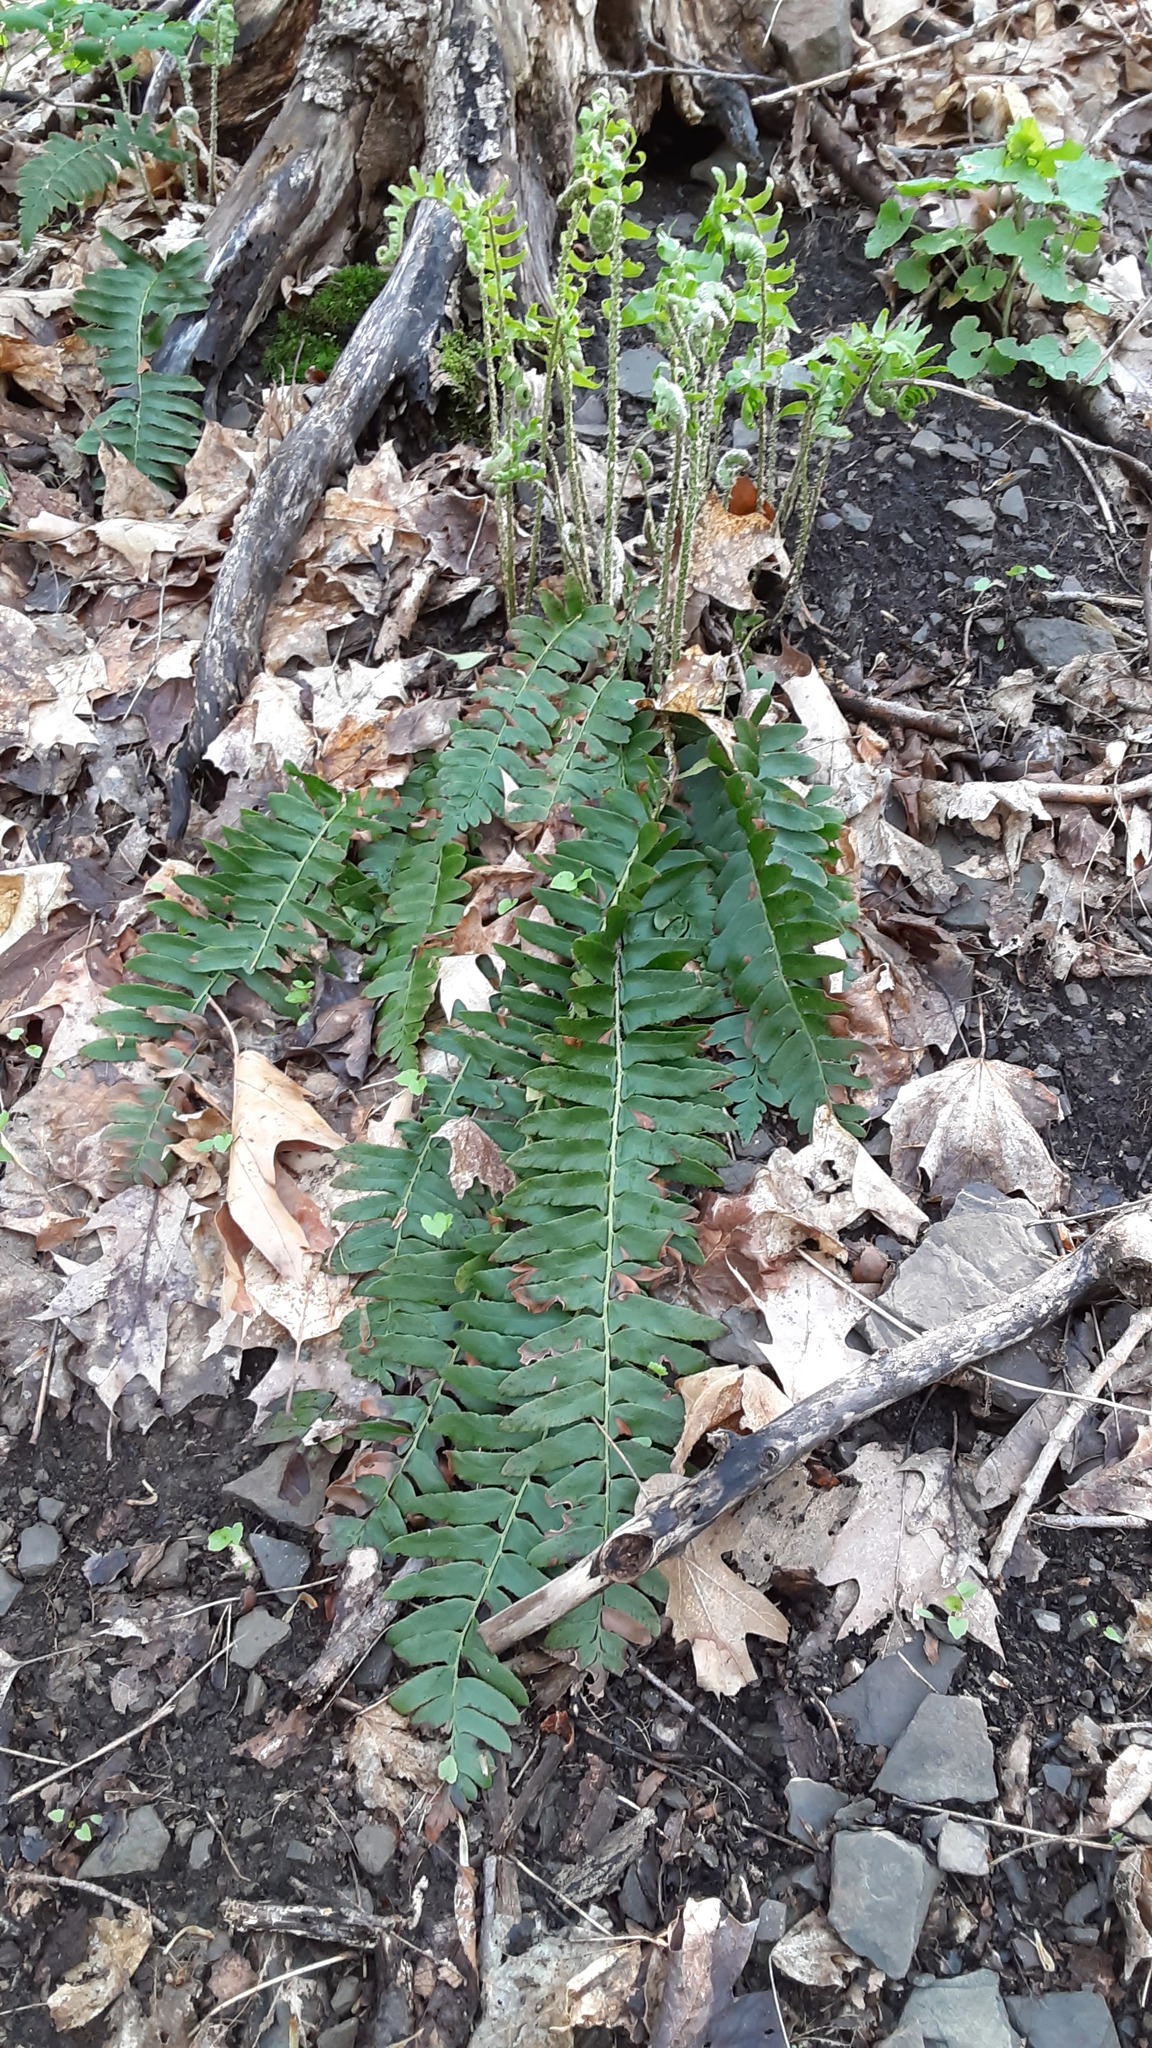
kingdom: Plantae
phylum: Tracheophyta
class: Polypodiopsida
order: Polypodiales
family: Dryopteridaceae
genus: Polystichum
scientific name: Polystichum acrostichoides
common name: Christmas fern
